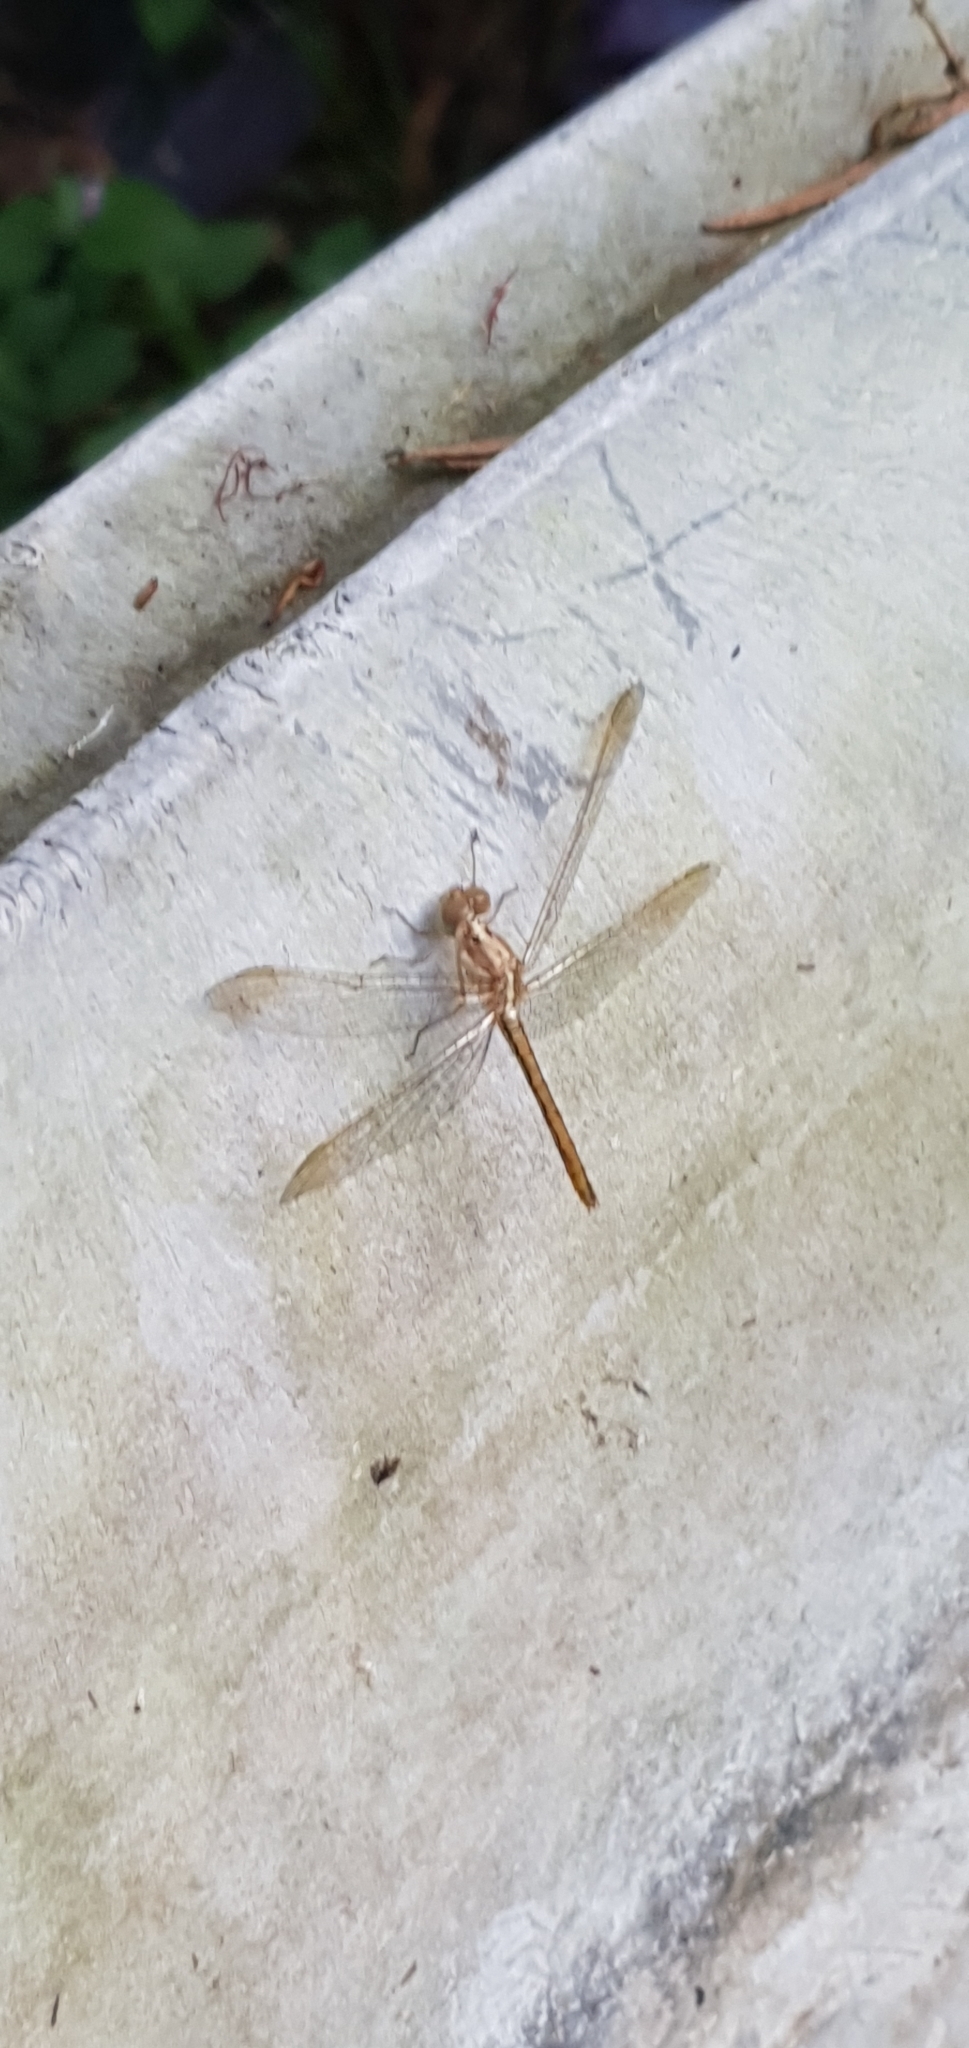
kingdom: Animalia
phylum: Arthropoda
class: Insecta
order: Odonata
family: Libellulidae
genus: Diplacodes
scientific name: Diplacodes haematodes
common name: Scarlet percher
